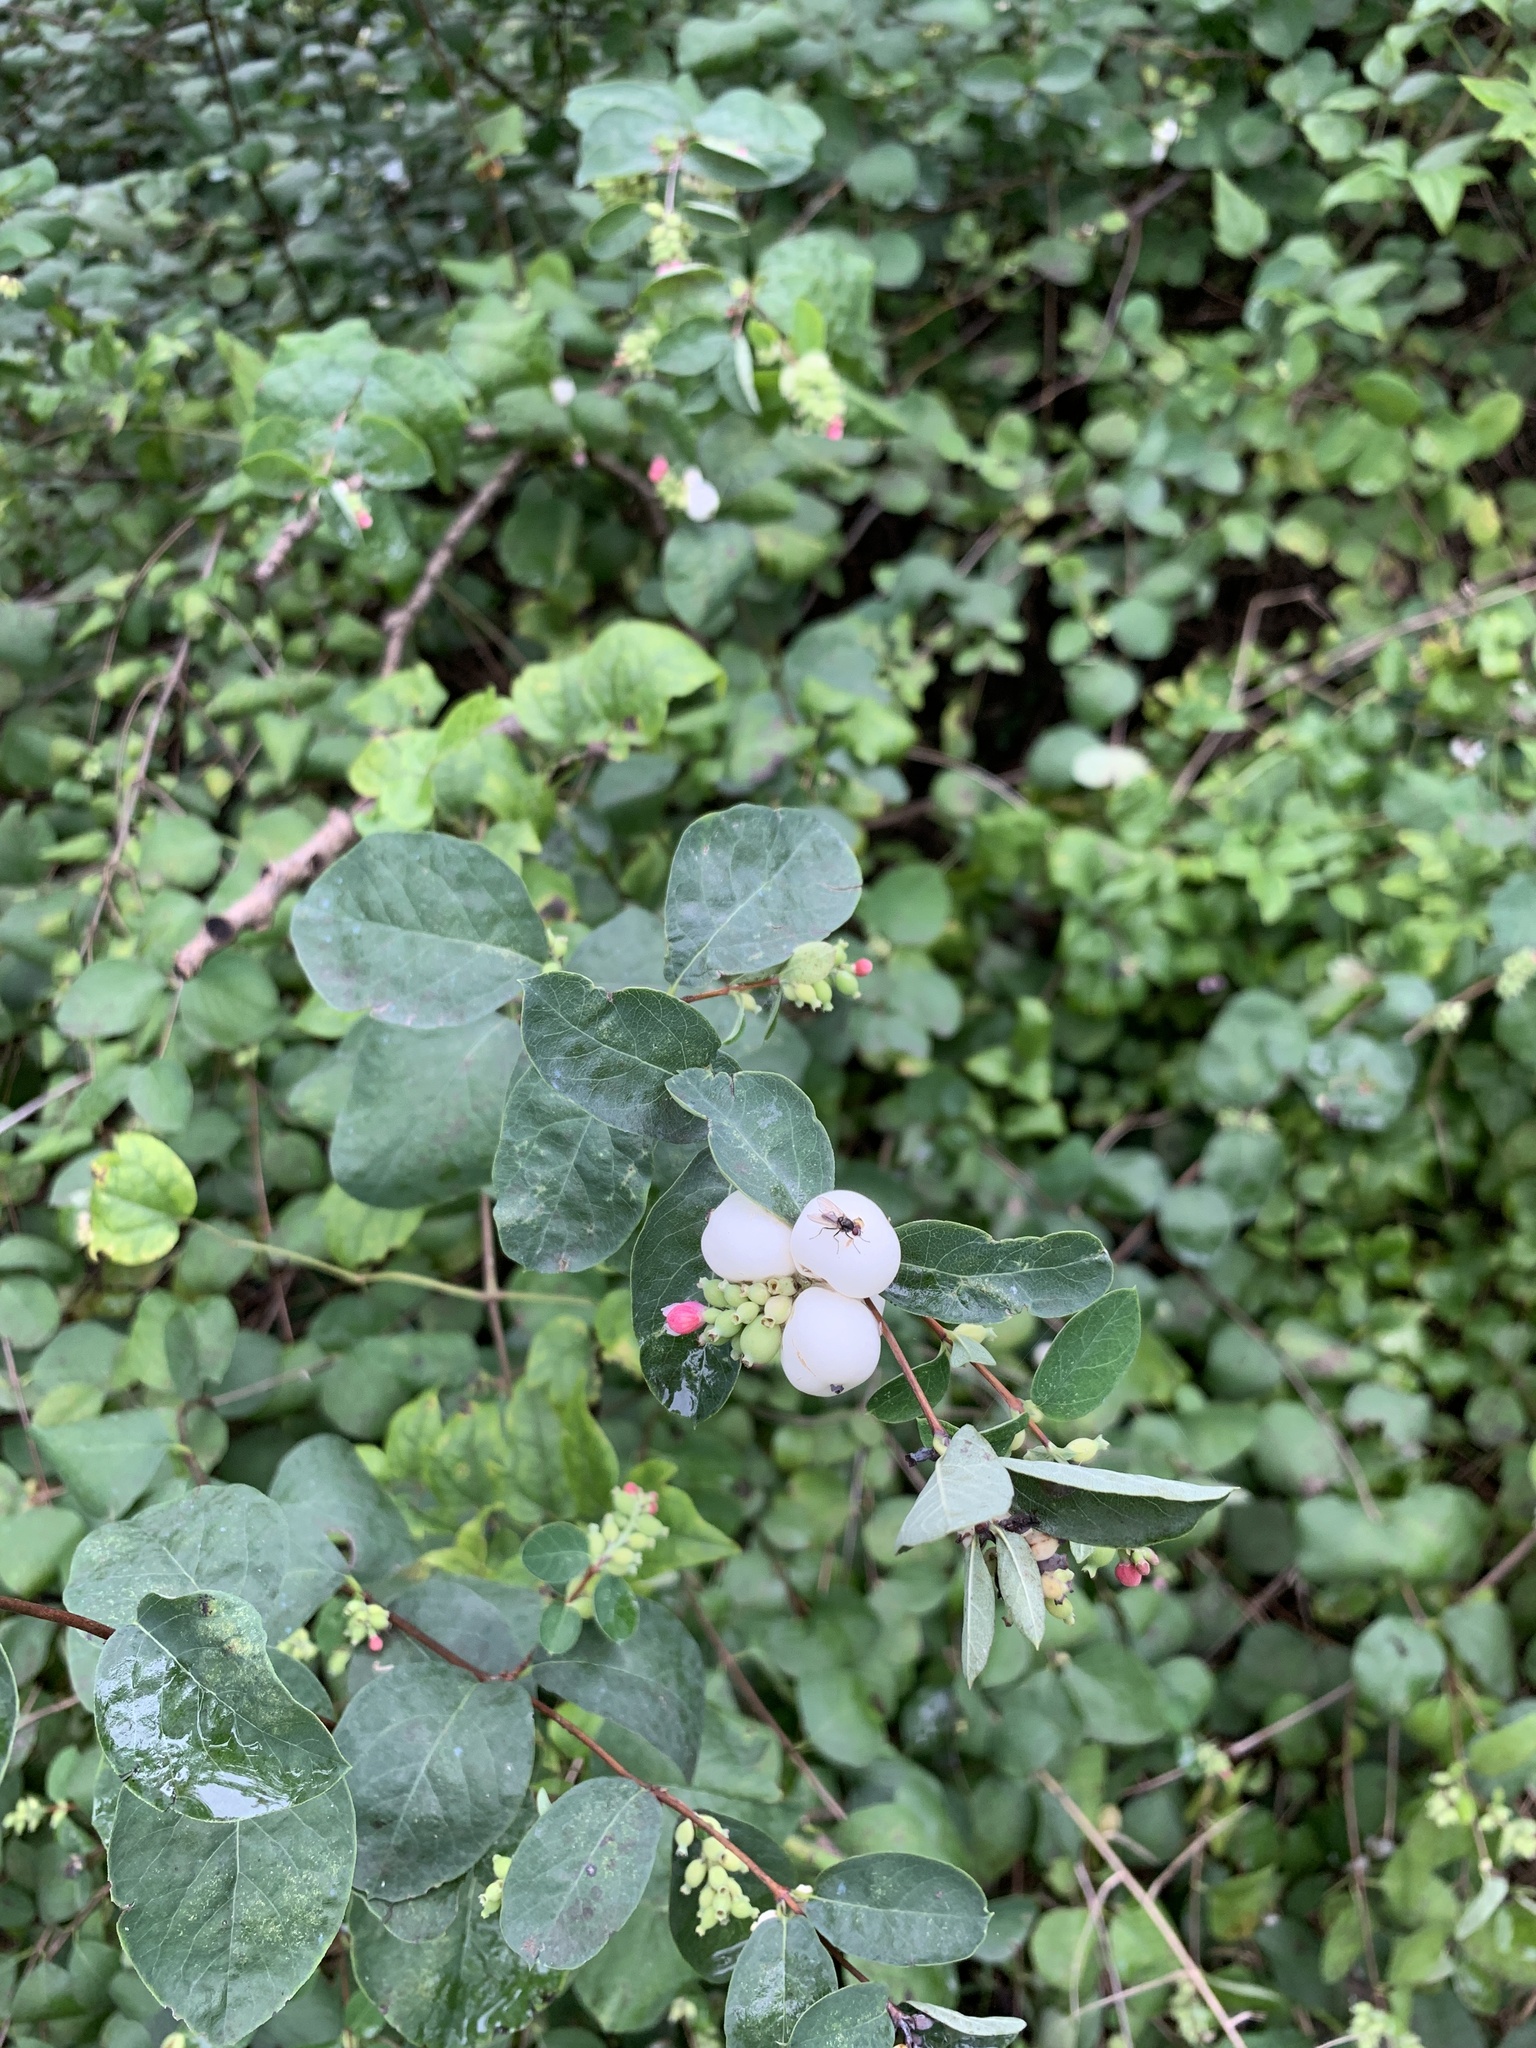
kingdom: Plantae
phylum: Tracheophyta
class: Magnoliopsida
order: Dipsacales
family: Caprifoliaceae
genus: Symphoricarpos
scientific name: Symphoricarpos albus
